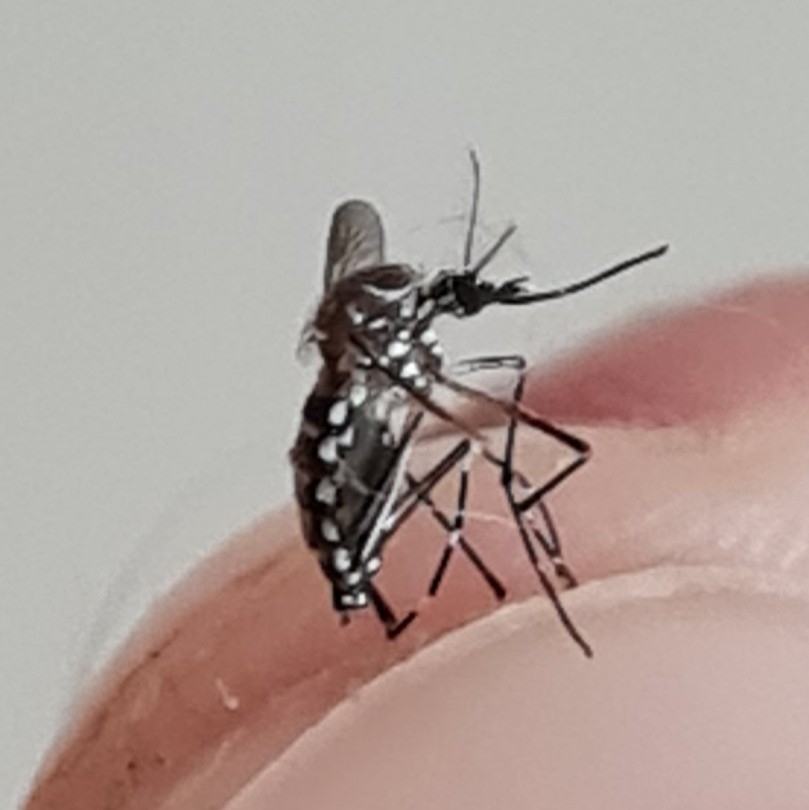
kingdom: Animalia
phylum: Arthropoda
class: Insecta
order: Diptera
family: Culicidae
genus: Aedes
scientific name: Aedes aegypti
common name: Yellow fever mosquito
